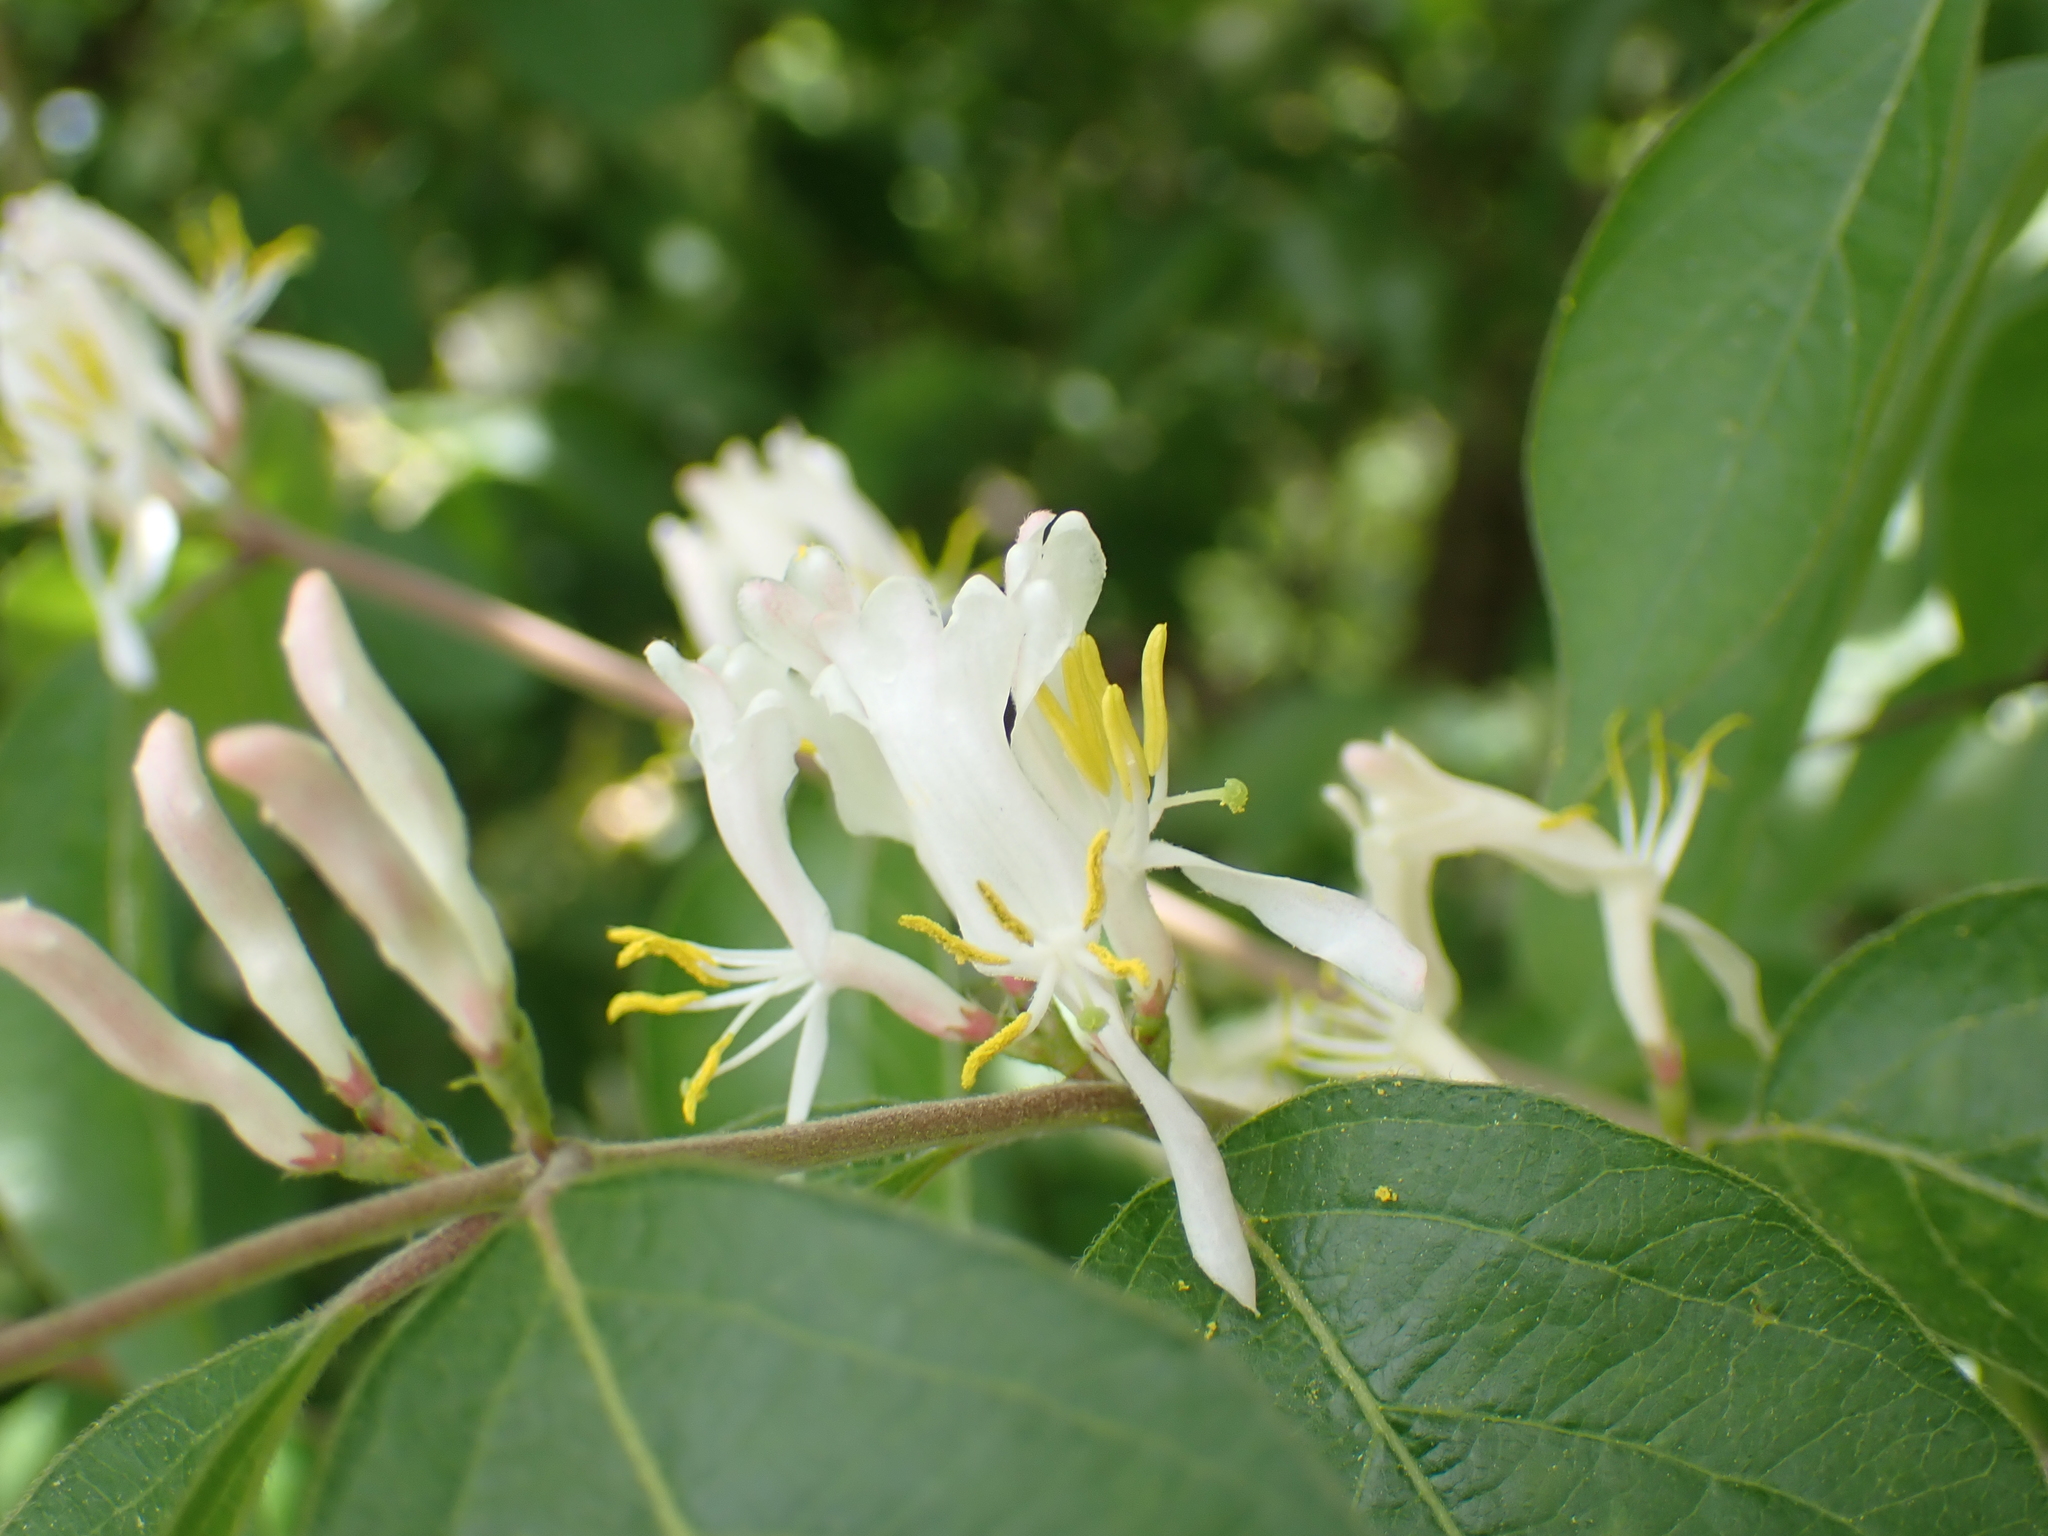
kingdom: Plantae
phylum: Tracheophyta
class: Magnoliopsida
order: Dipsacales
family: Caprifoliaceae
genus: Lonicera
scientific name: Lonicera maackii
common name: Amur honeysuckle
